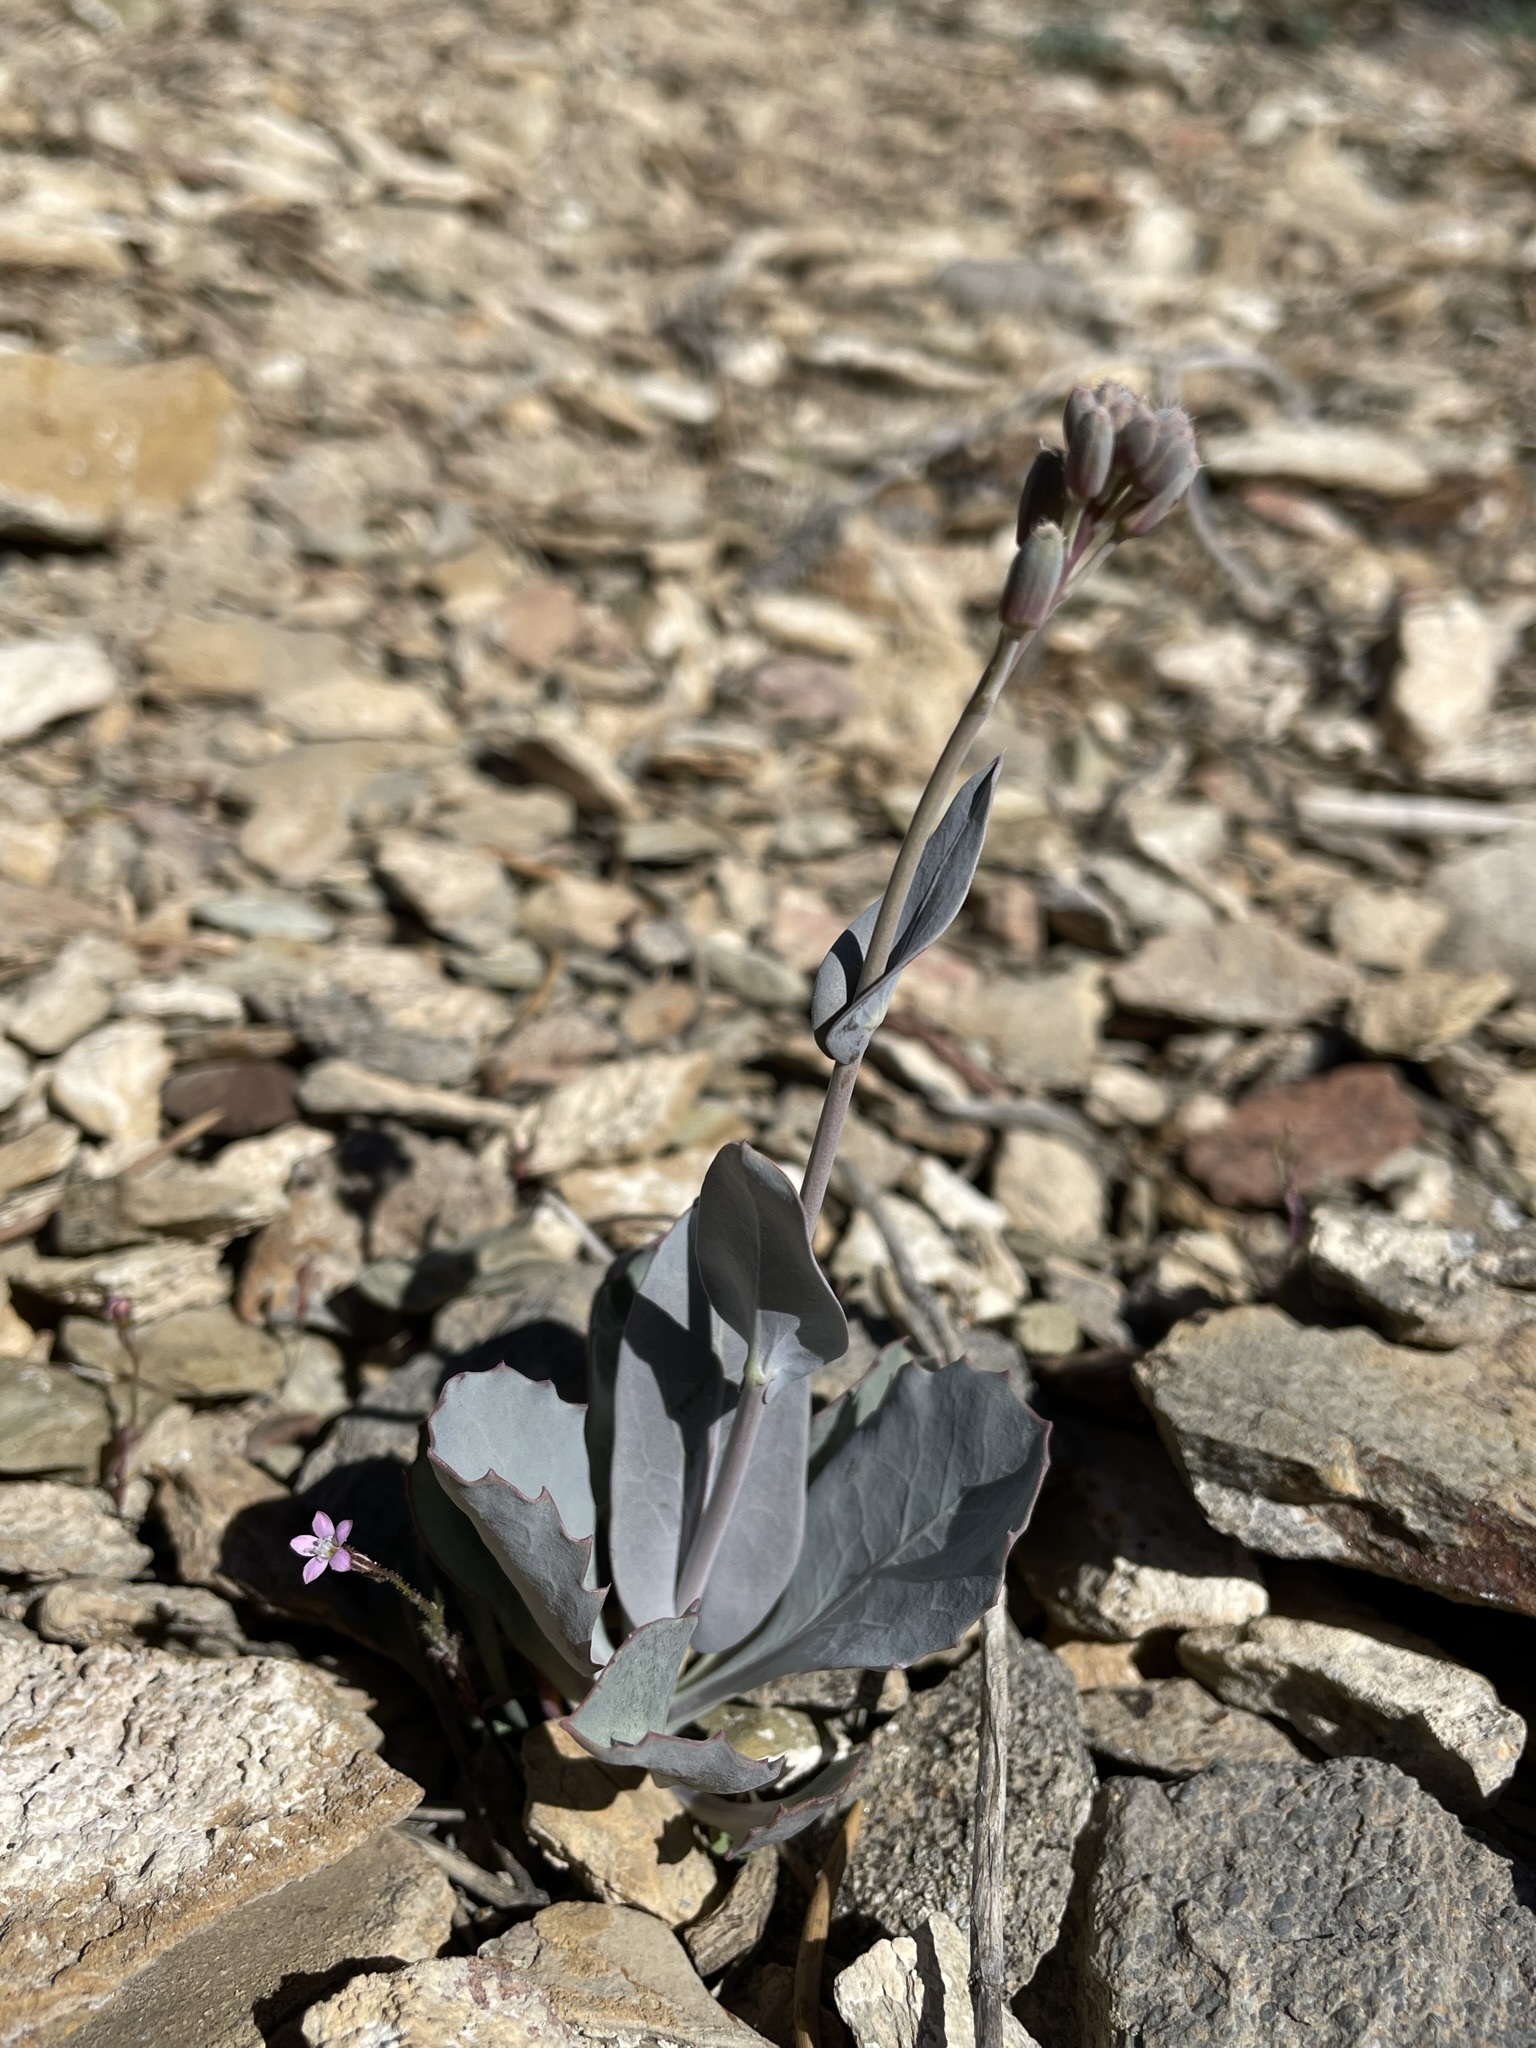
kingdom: Plantae
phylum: Tracheophyta
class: Magnoliopsida
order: Brassicales
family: Brassicaceae
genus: Streptanthus
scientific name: Streptanthus cordatus
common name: Heart-leaf jewel-flower
